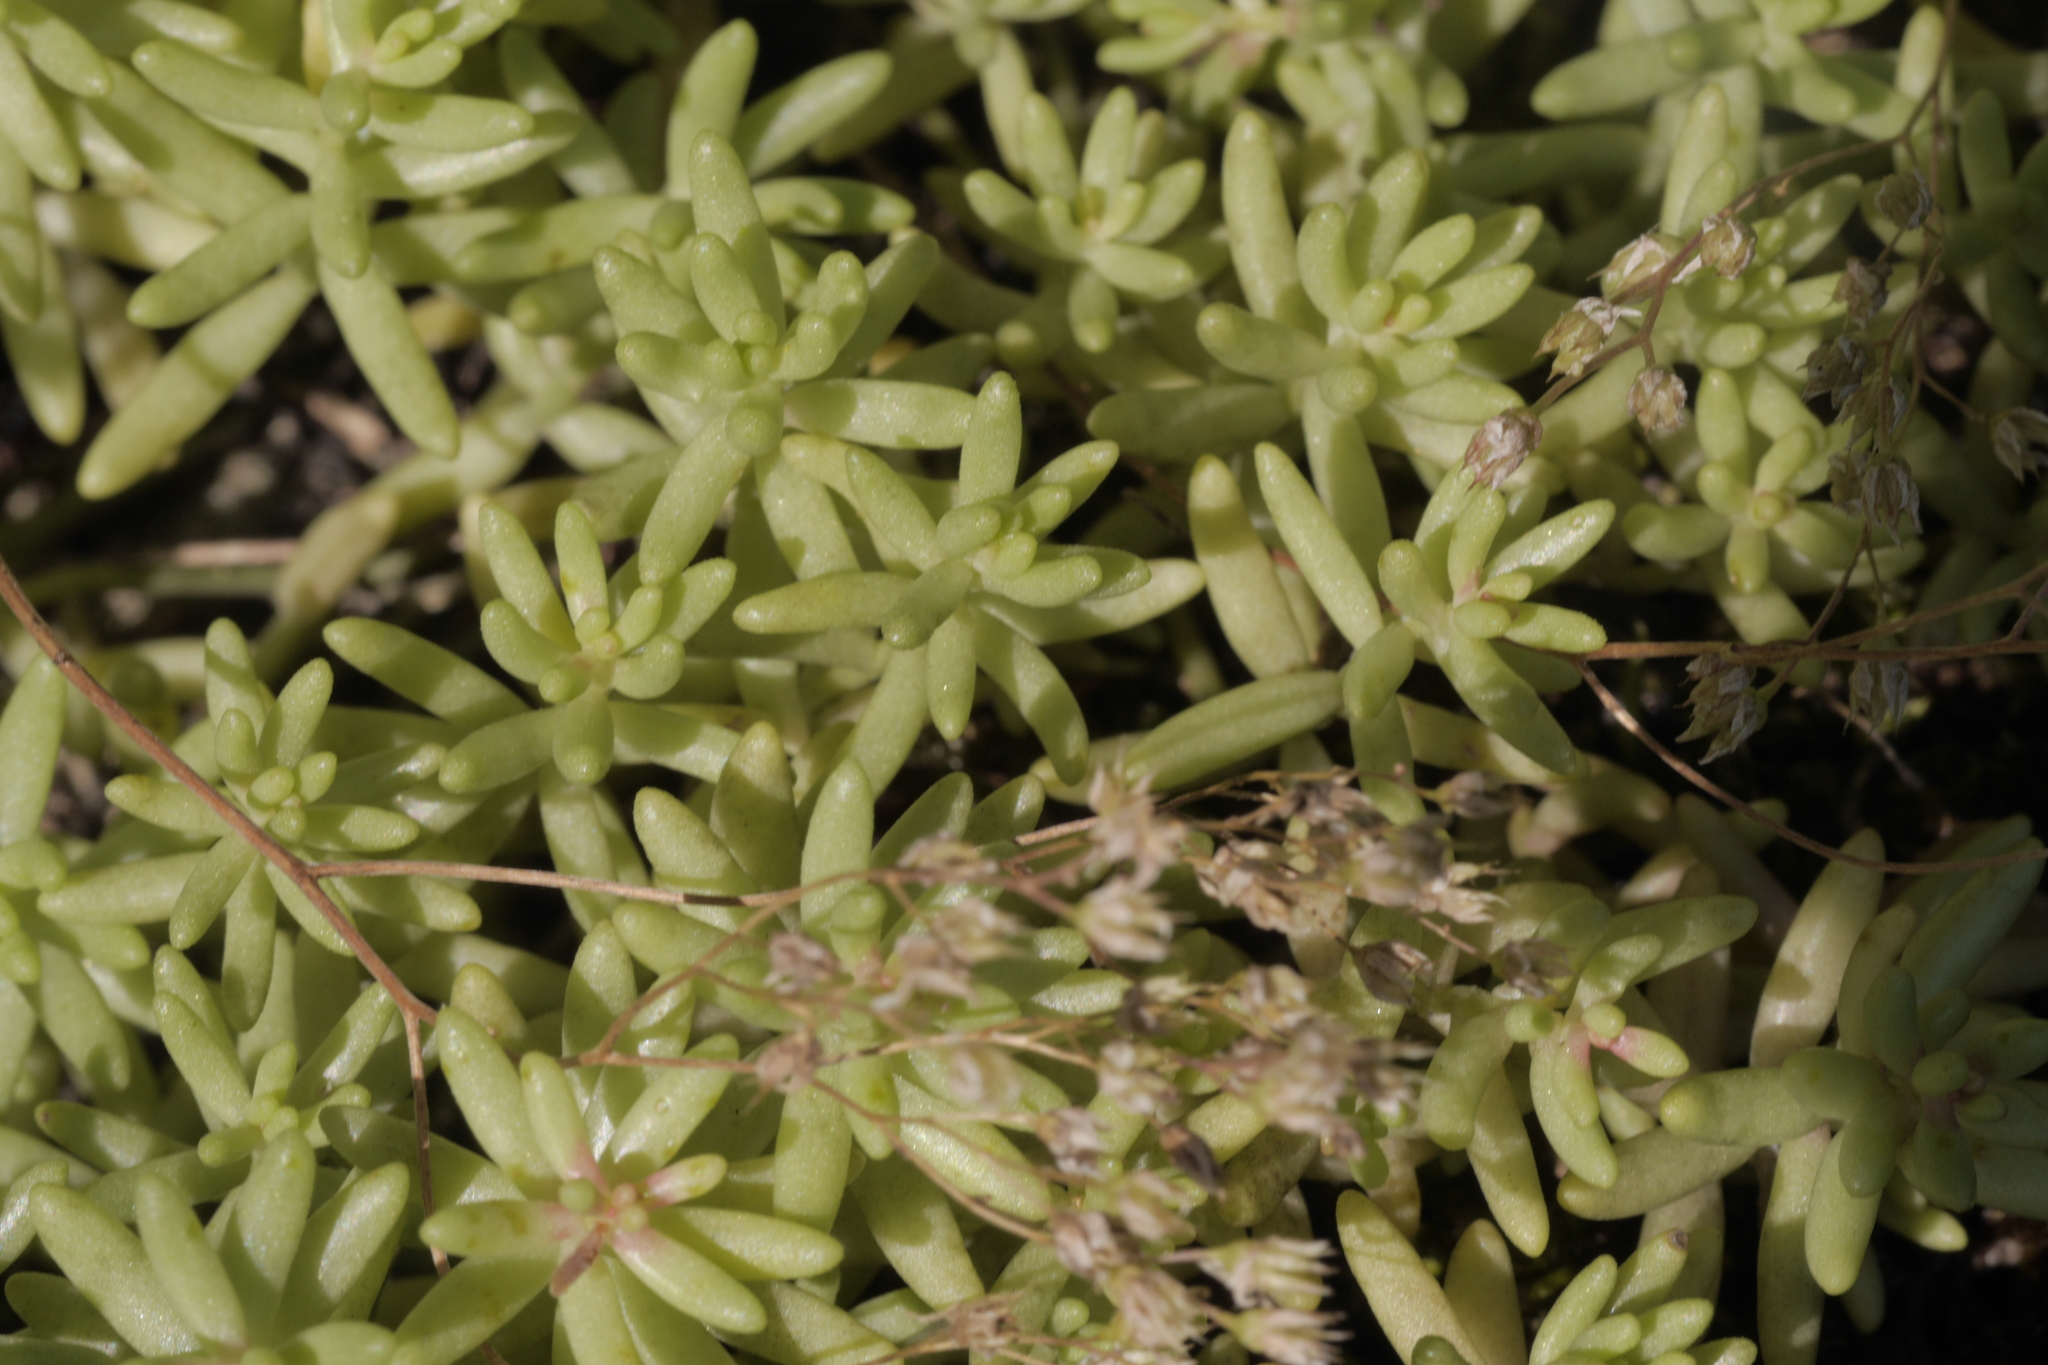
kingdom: Plantae
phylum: Tracheophyta
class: Magnoliopsida
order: Saxifragales
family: Crassulaceae
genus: Sedum
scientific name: Sedum album
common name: White stonecrop
